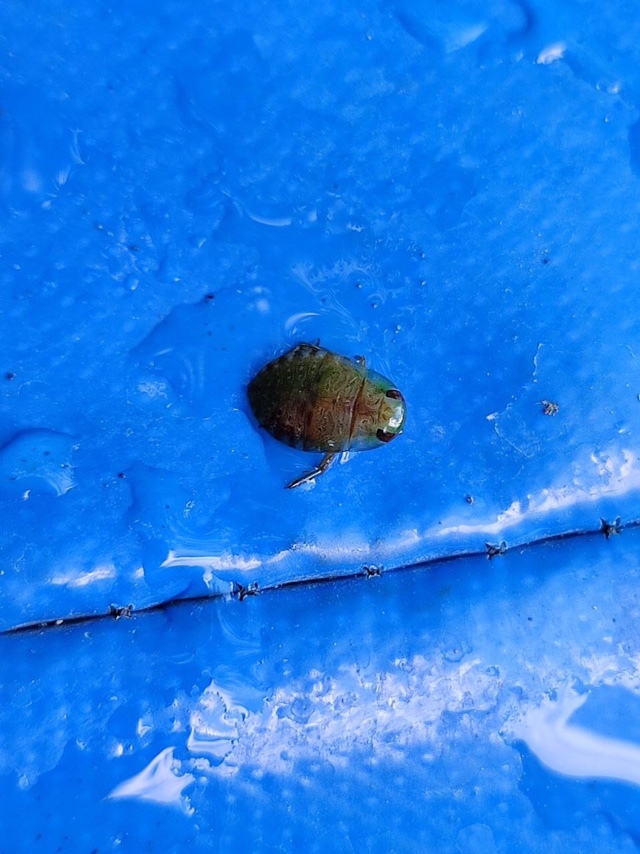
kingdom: Animalia
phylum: Arthropoda
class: Insecta
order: Hemiptera
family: Naucoridae
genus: Ilyocoris
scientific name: Ilyocoris cimicoides
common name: Saucer bugs
